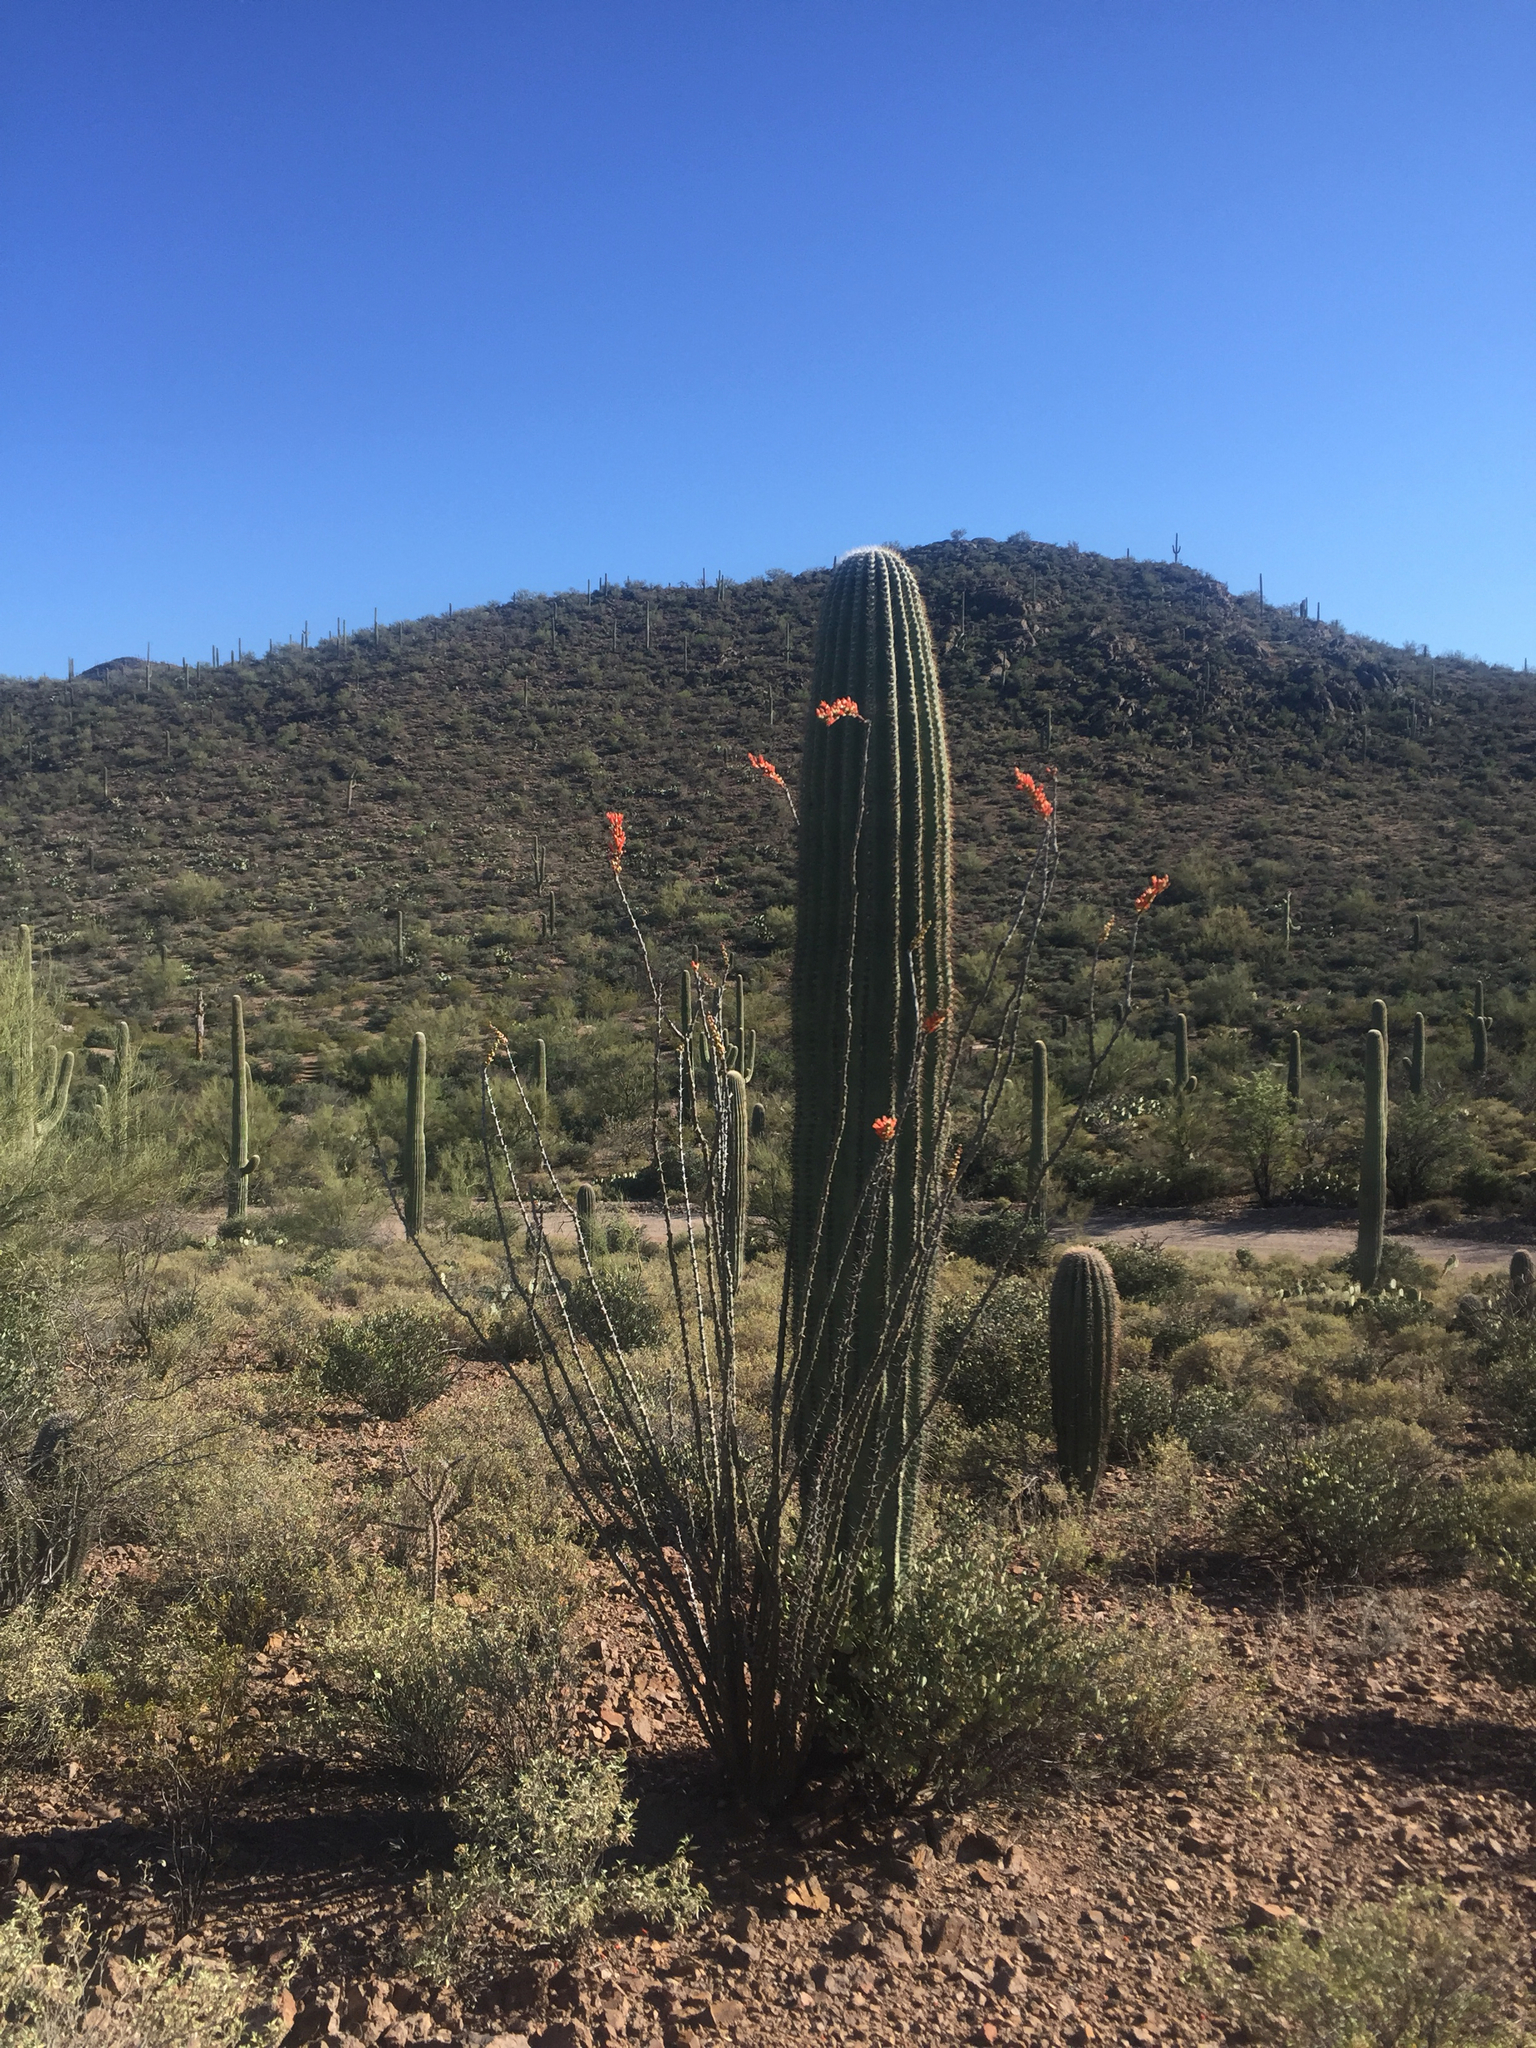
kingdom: Plantae
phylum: Tracheophyta
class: Magnoliopsida
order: Ericales
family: Fouquieriaceae
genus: Fouquieria
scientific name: Fouquieria splendens
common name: Vine-cactus
